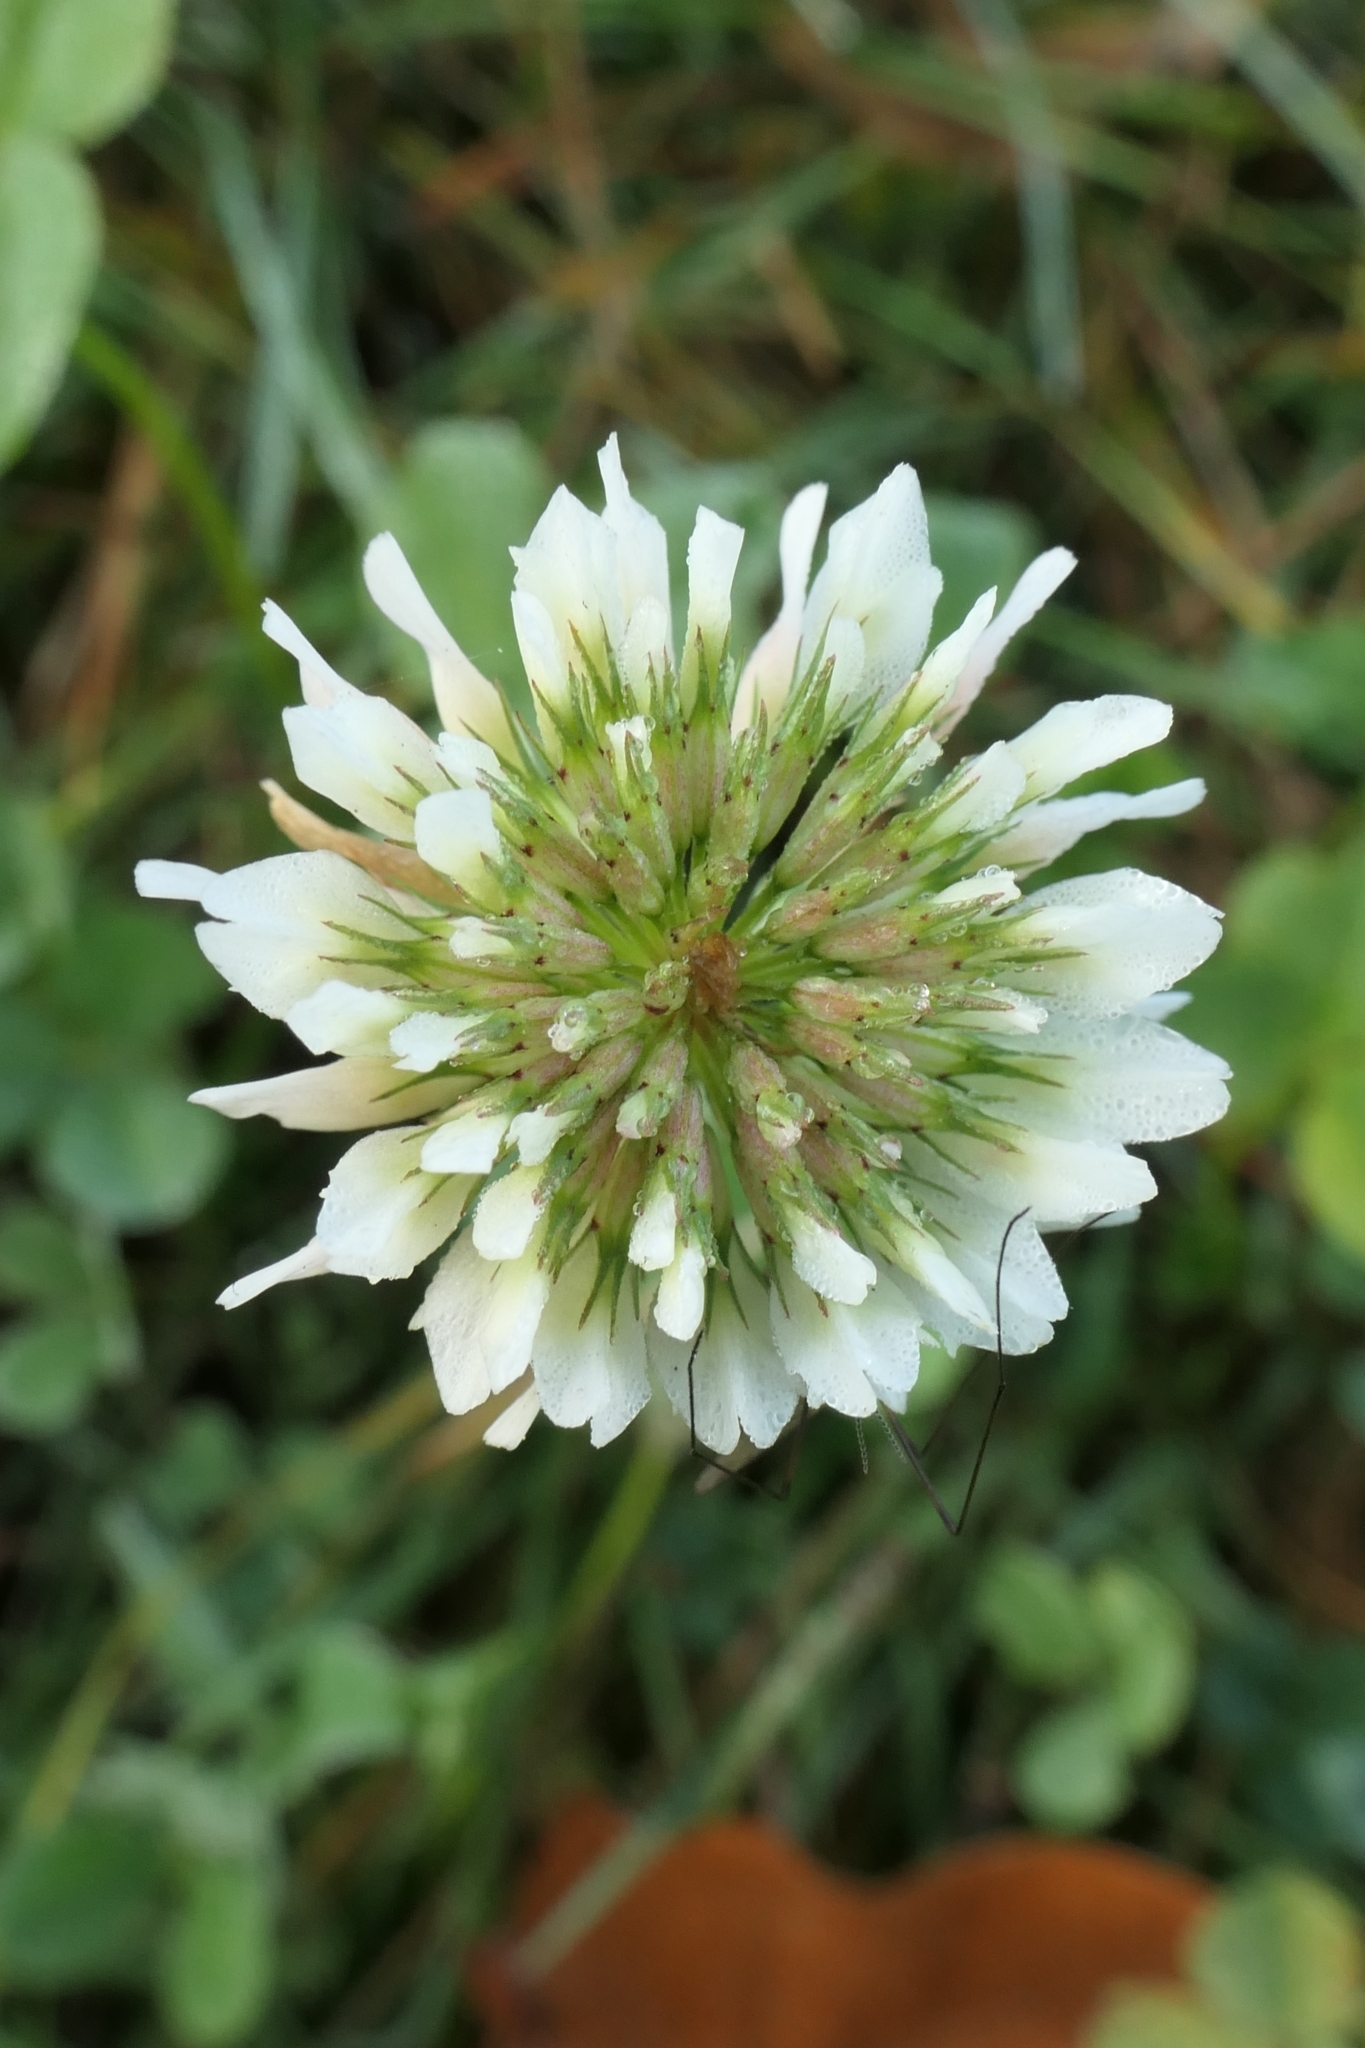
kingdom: Plantae
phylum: Tracheophyta
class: Magnoliopsida
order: Fabales
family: Fabaceae
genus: Trifolium
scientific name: Trifolium repens
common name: White clover
